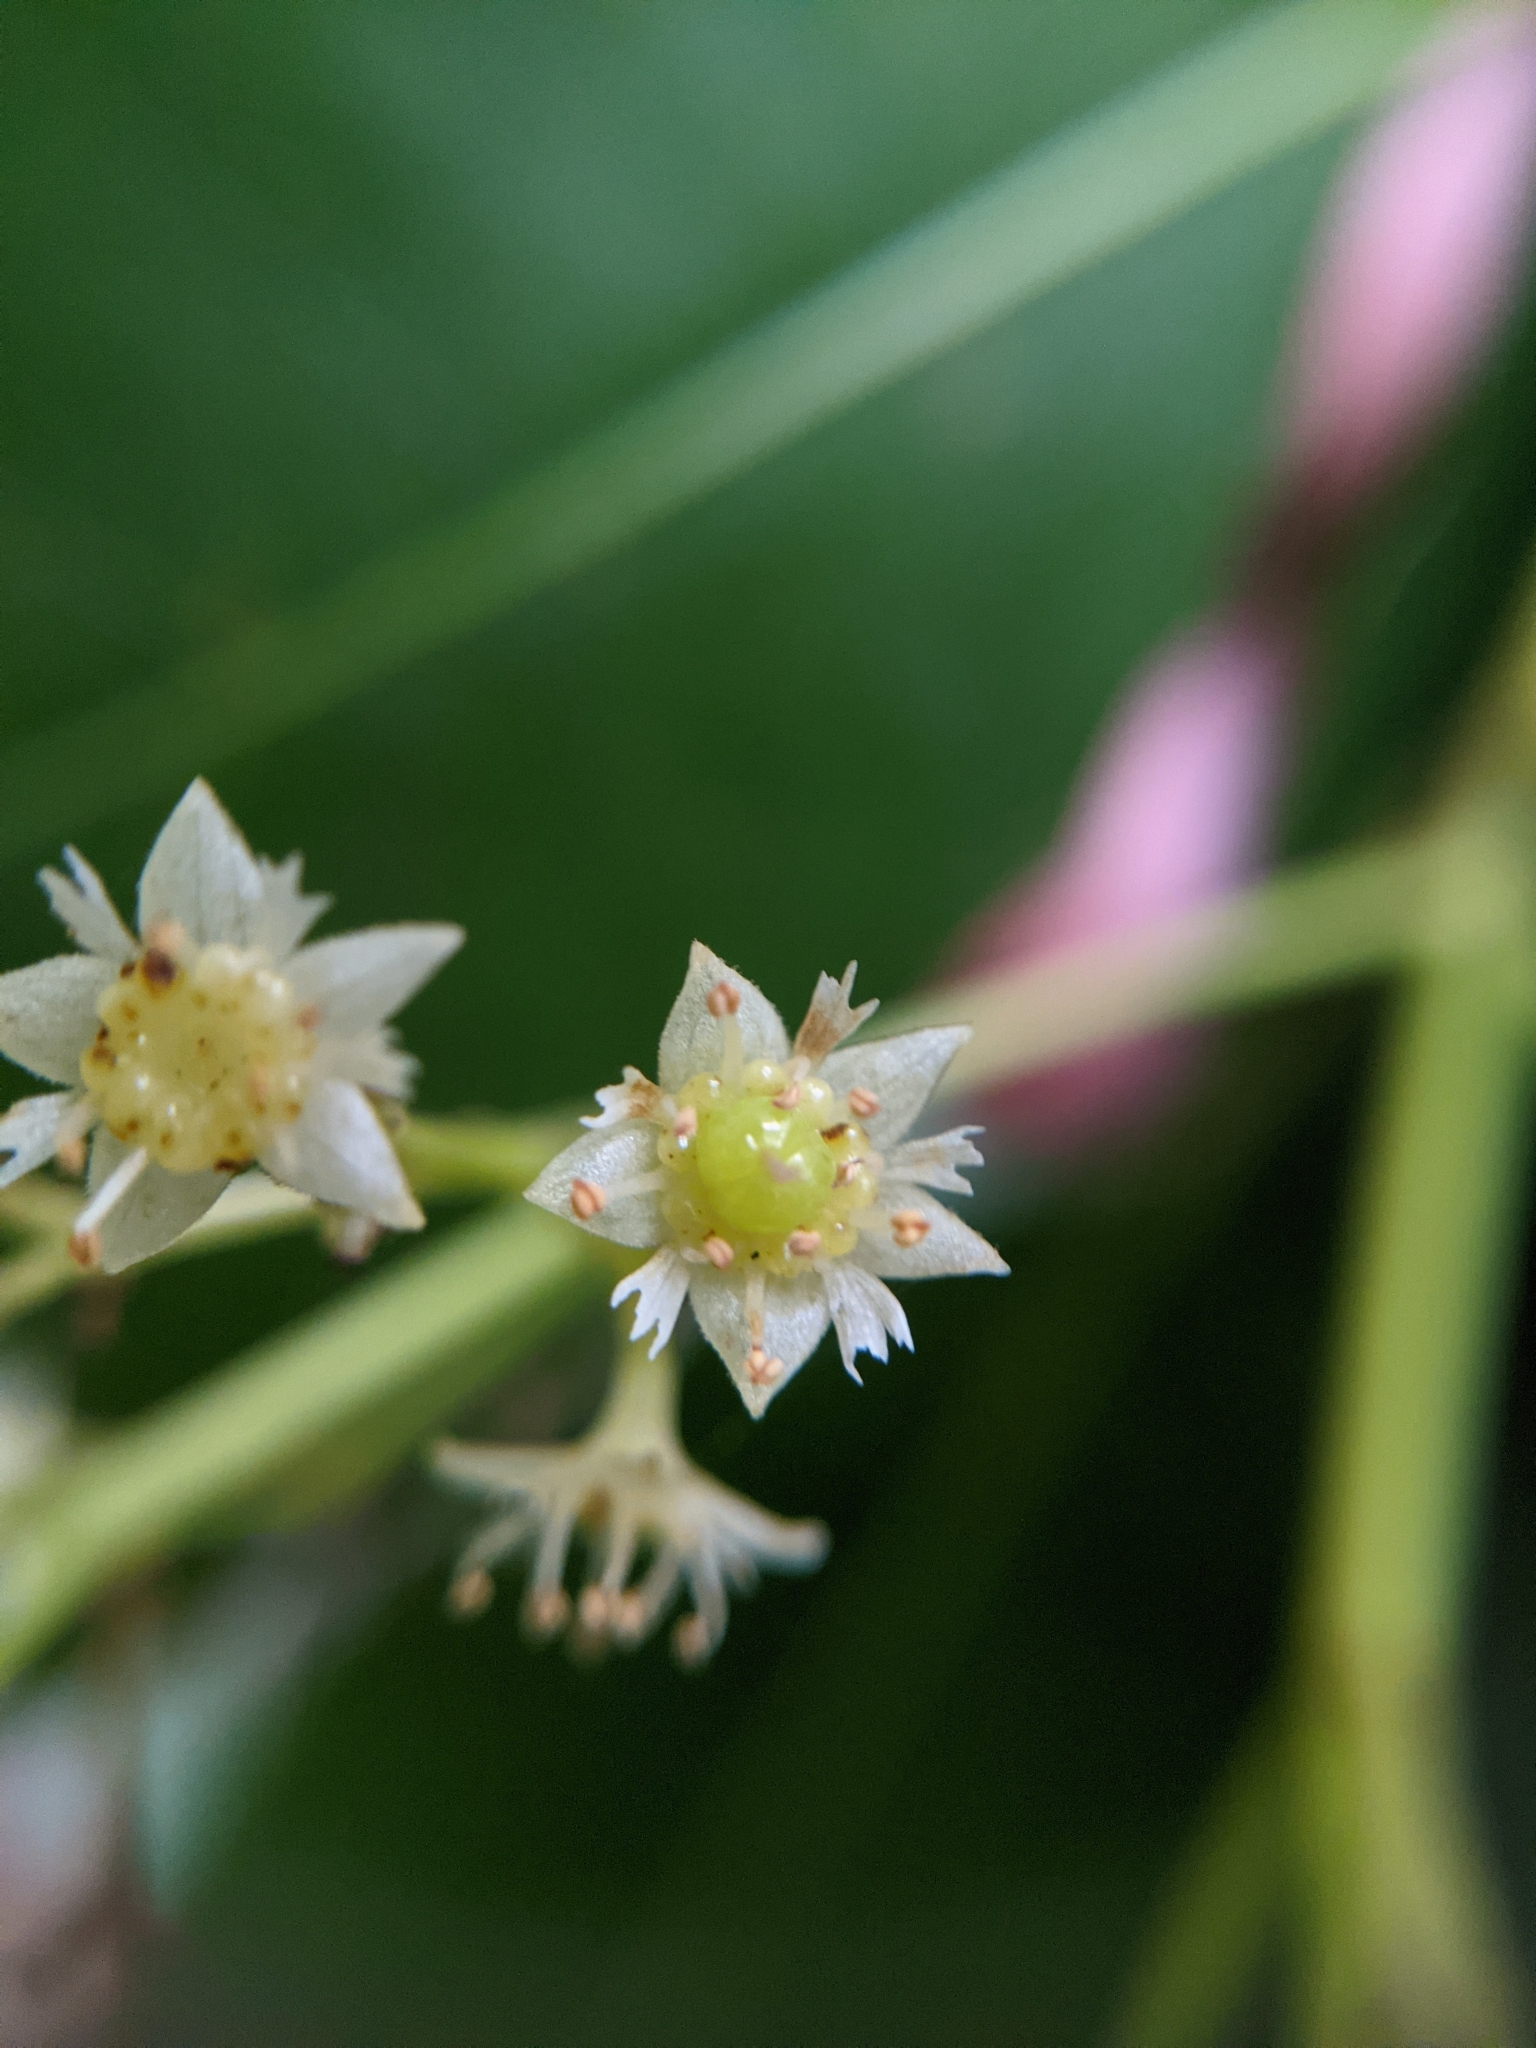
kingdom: Plantae
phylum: Tracheophyta
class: Magnoliopsida
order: Oxalidales
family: Cunoniaceae
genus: Schizomeria
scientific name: Schizomeria ovata
